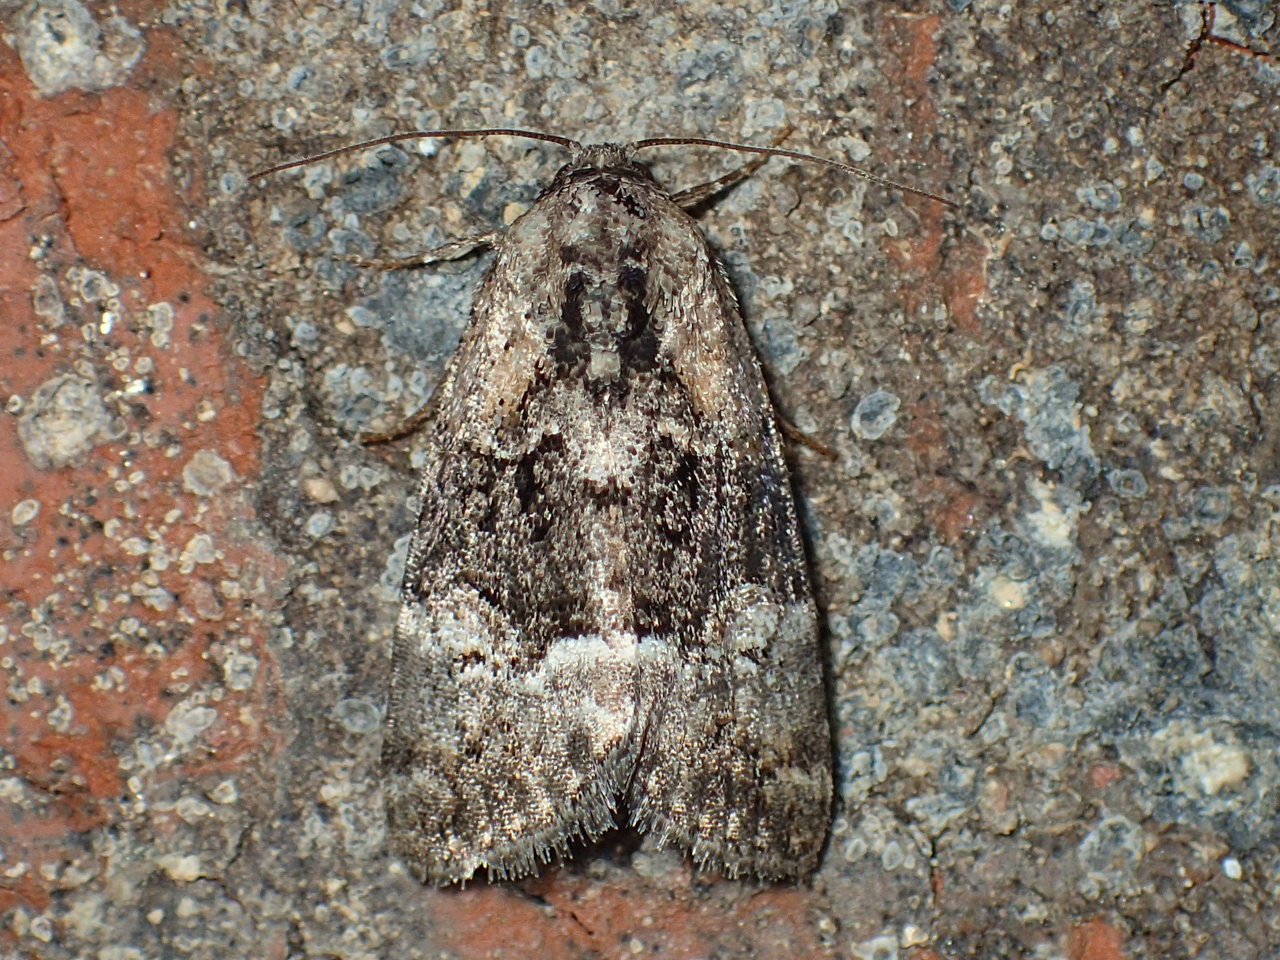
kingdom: Animalia
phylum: Arthropoda
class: Insecta
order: Lepidoptera
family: Noctuidae
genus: Elaphria
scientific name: Elaphria georgei
